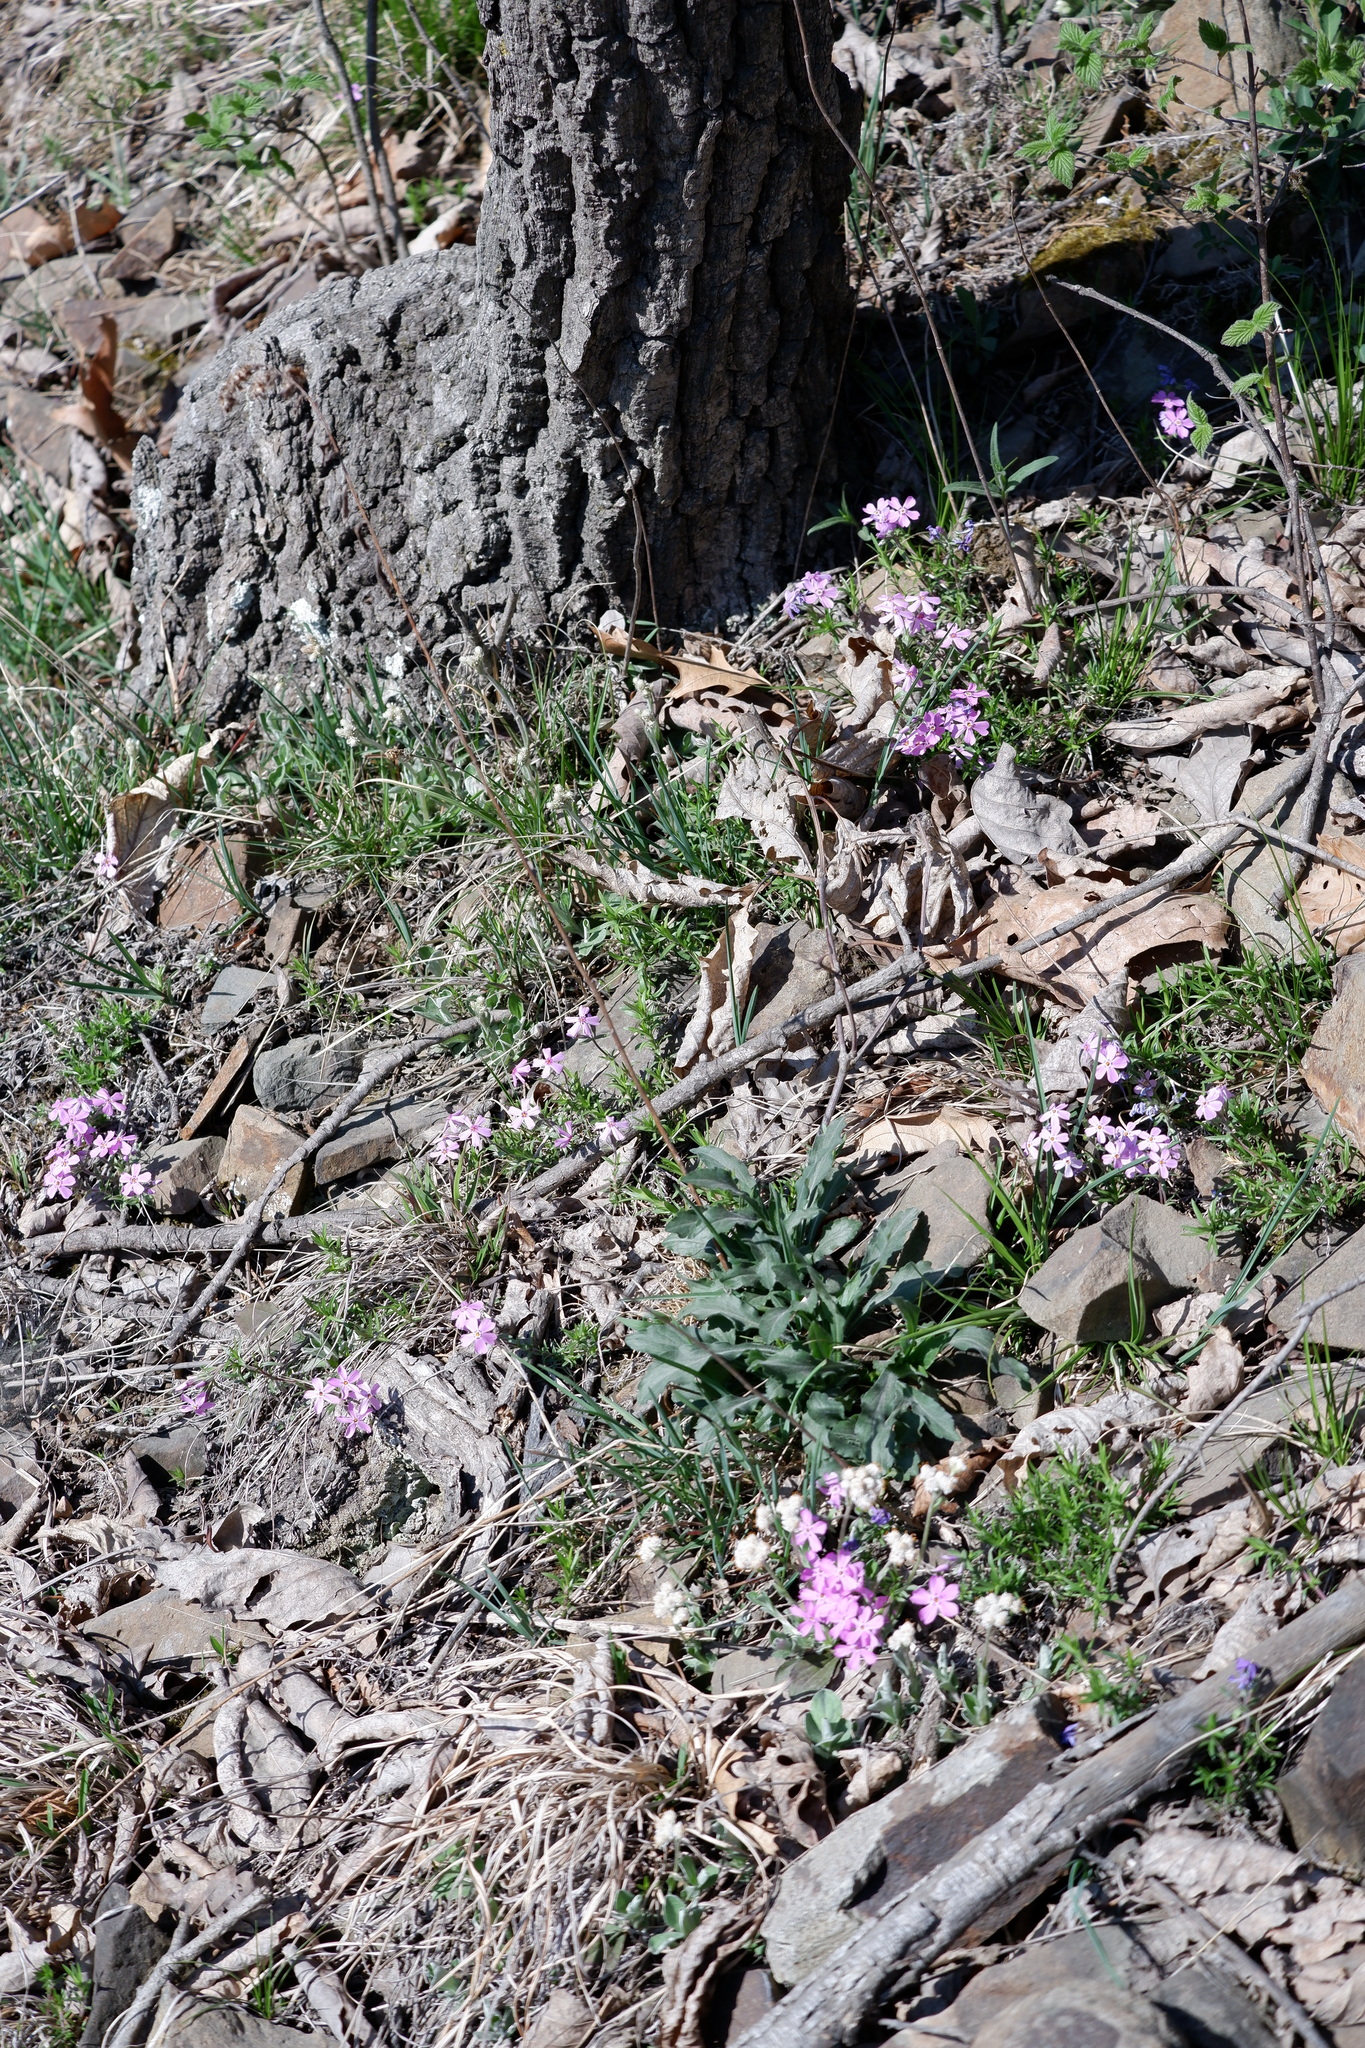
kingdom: Plantae
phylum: Tracheophyta
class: Magnoliopsida
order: Ericales
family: Polemoniaceae
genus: Phlox
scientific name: Phlox subulata
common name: Moss phlox
